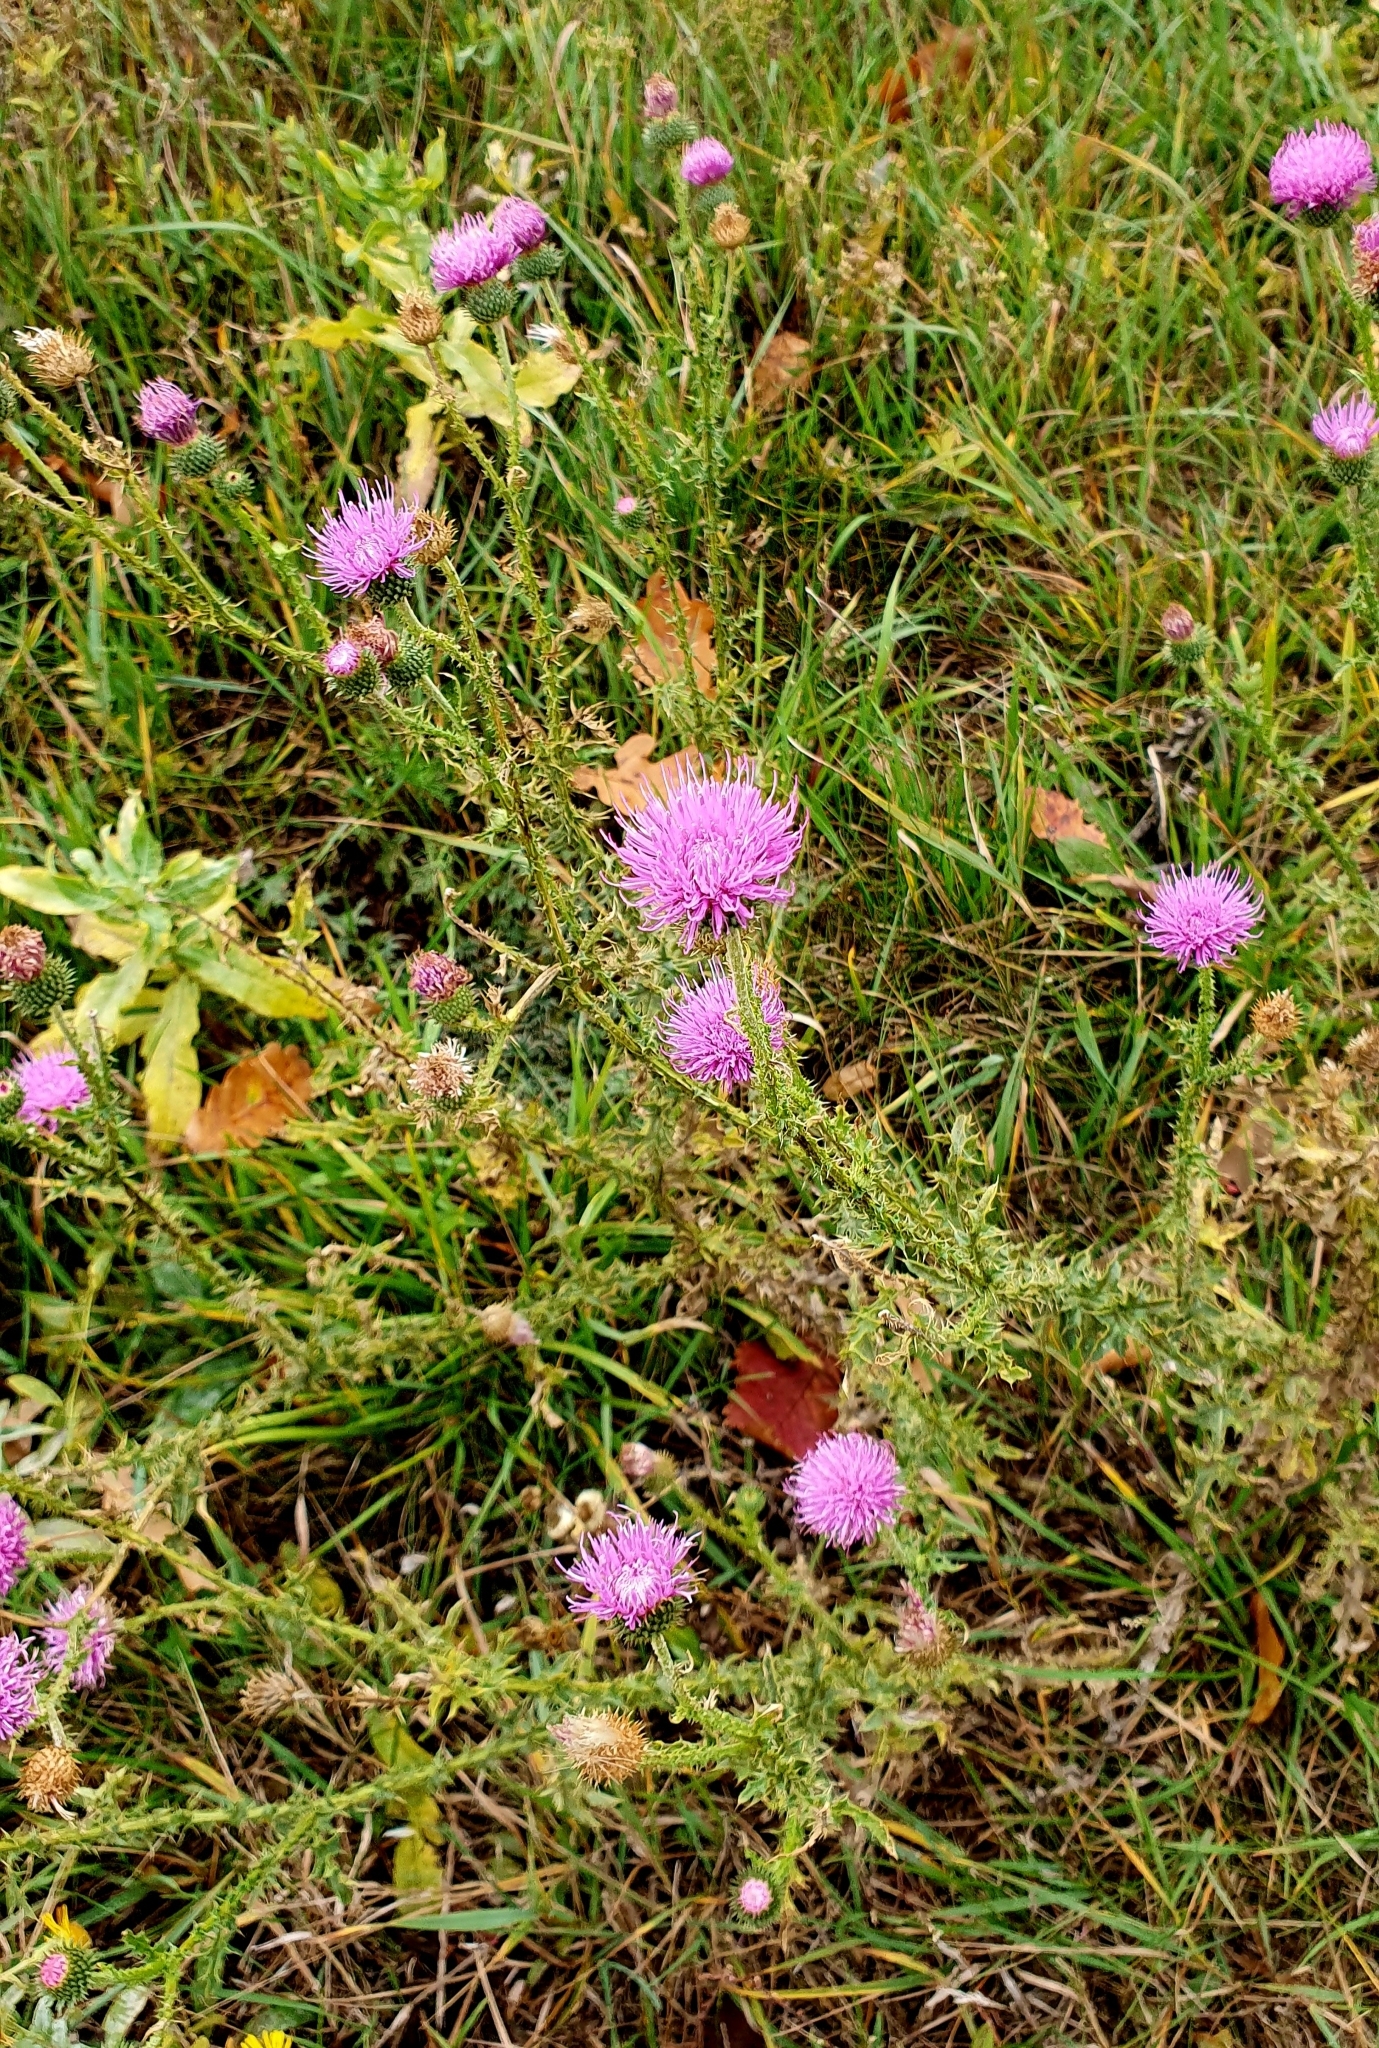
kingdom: Plantae
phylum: Tracheophyta
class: Magnoliopsida
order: Asterales
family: Asteraceae
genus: Carduus
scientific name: Carduus acanthoides
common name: Plumeless thistle
